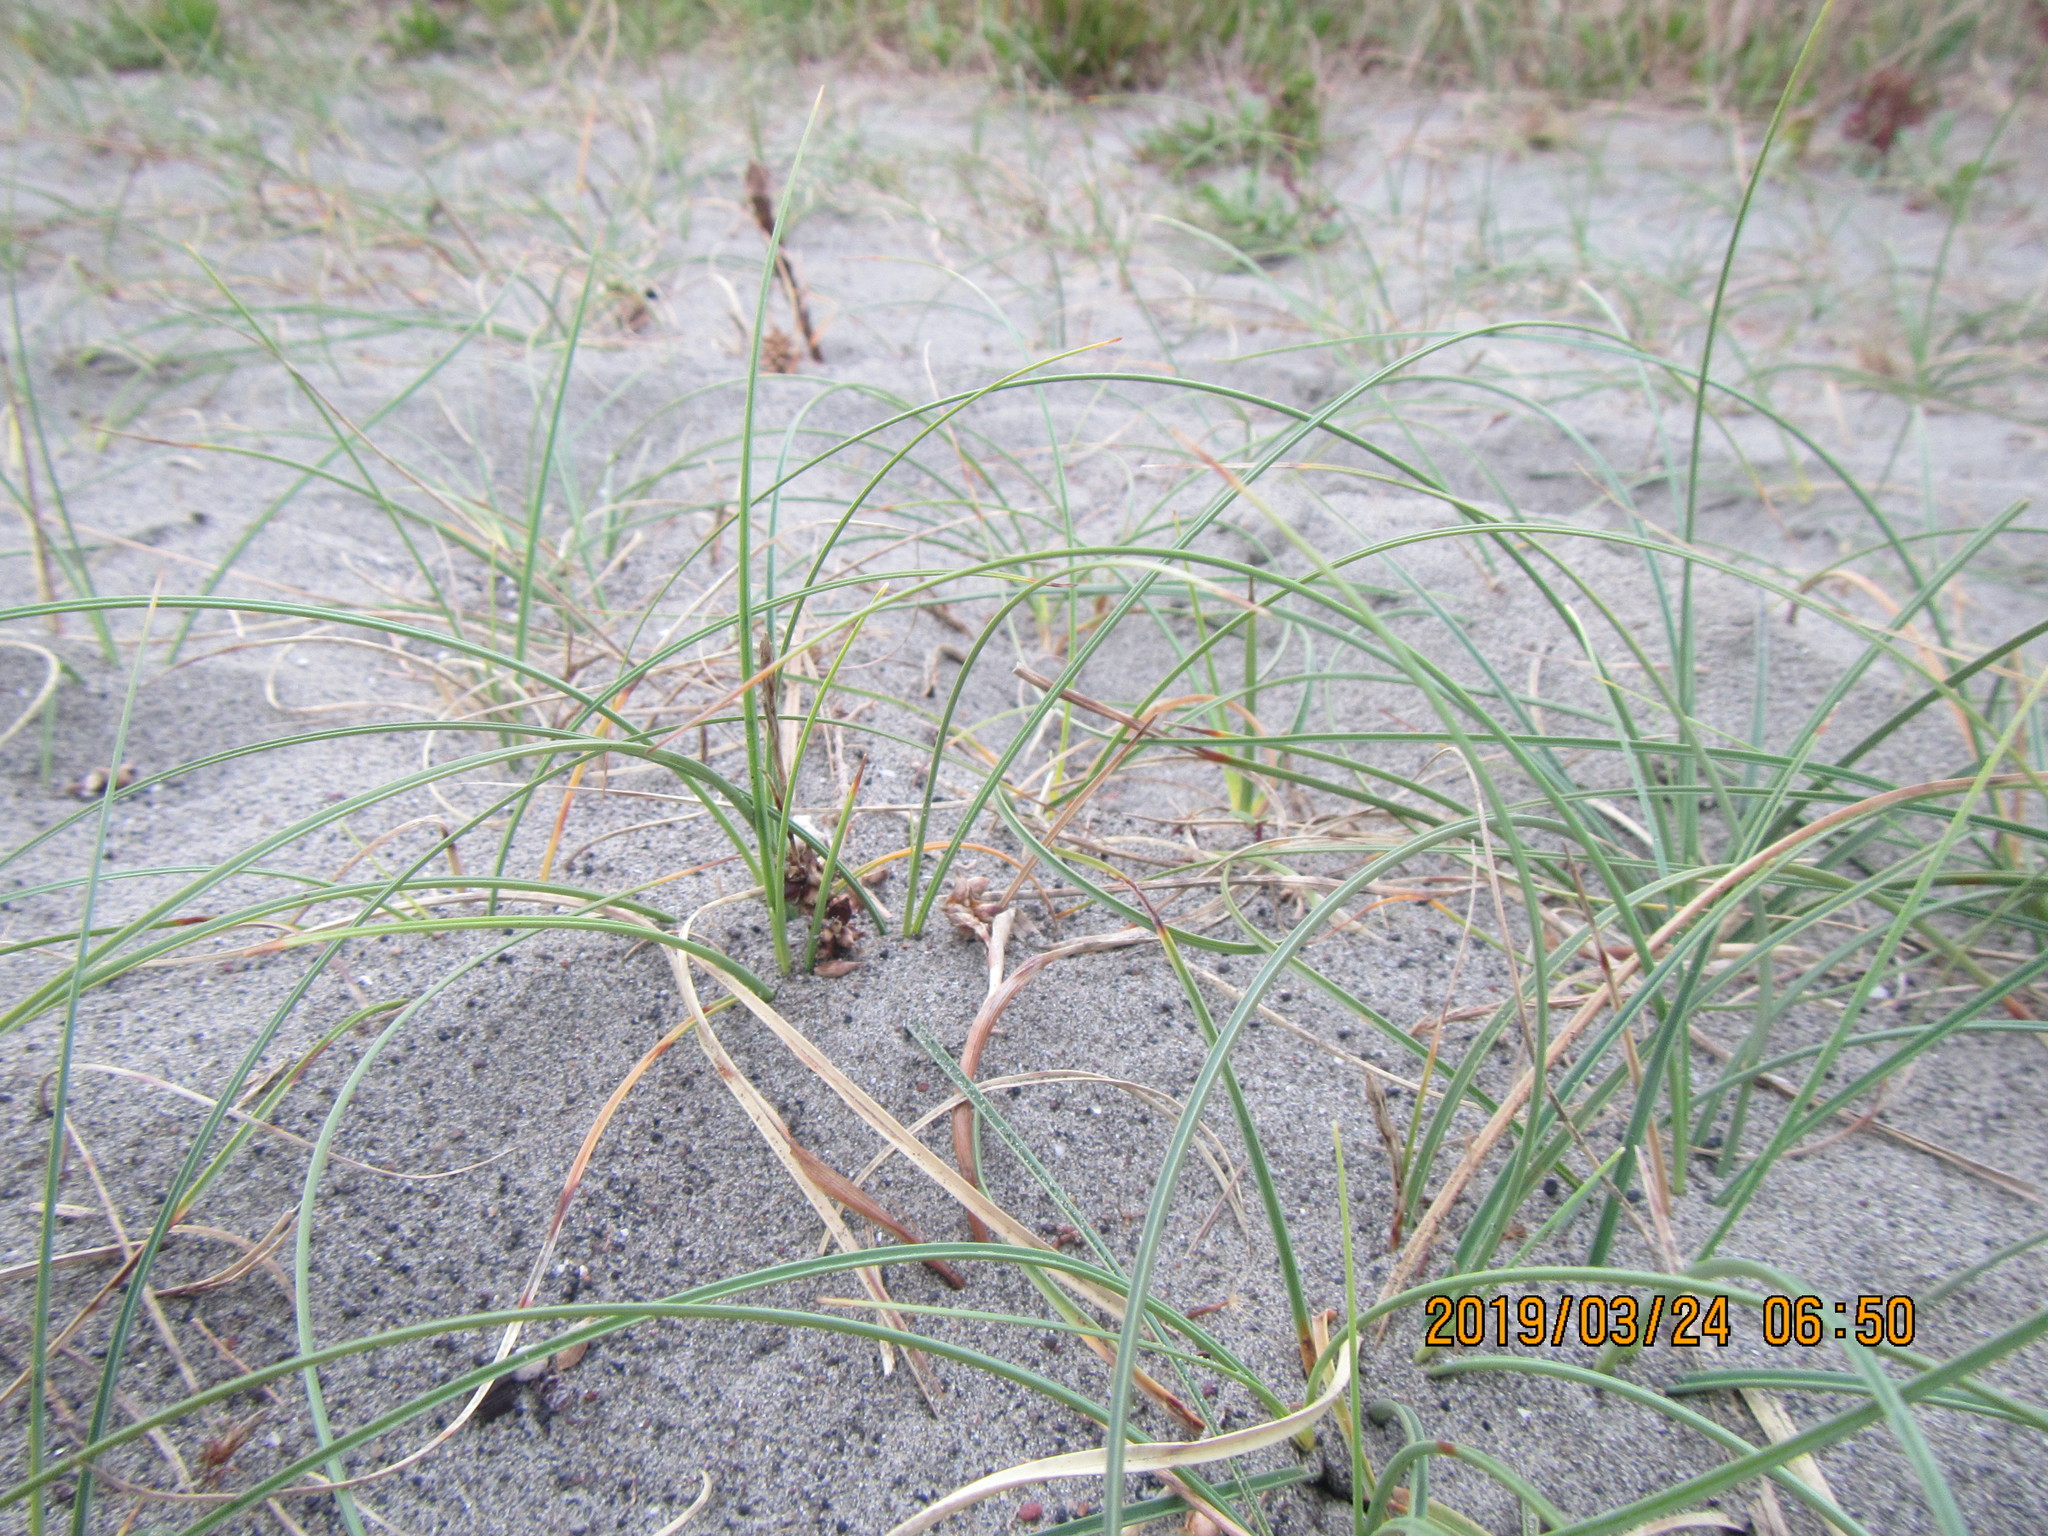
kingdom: Plantae
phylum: Tracheophyta
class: Liliopsida
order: Poales
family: Cyperaceae
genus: Carex
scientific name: Carex pumila
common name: Dwarf sedge
